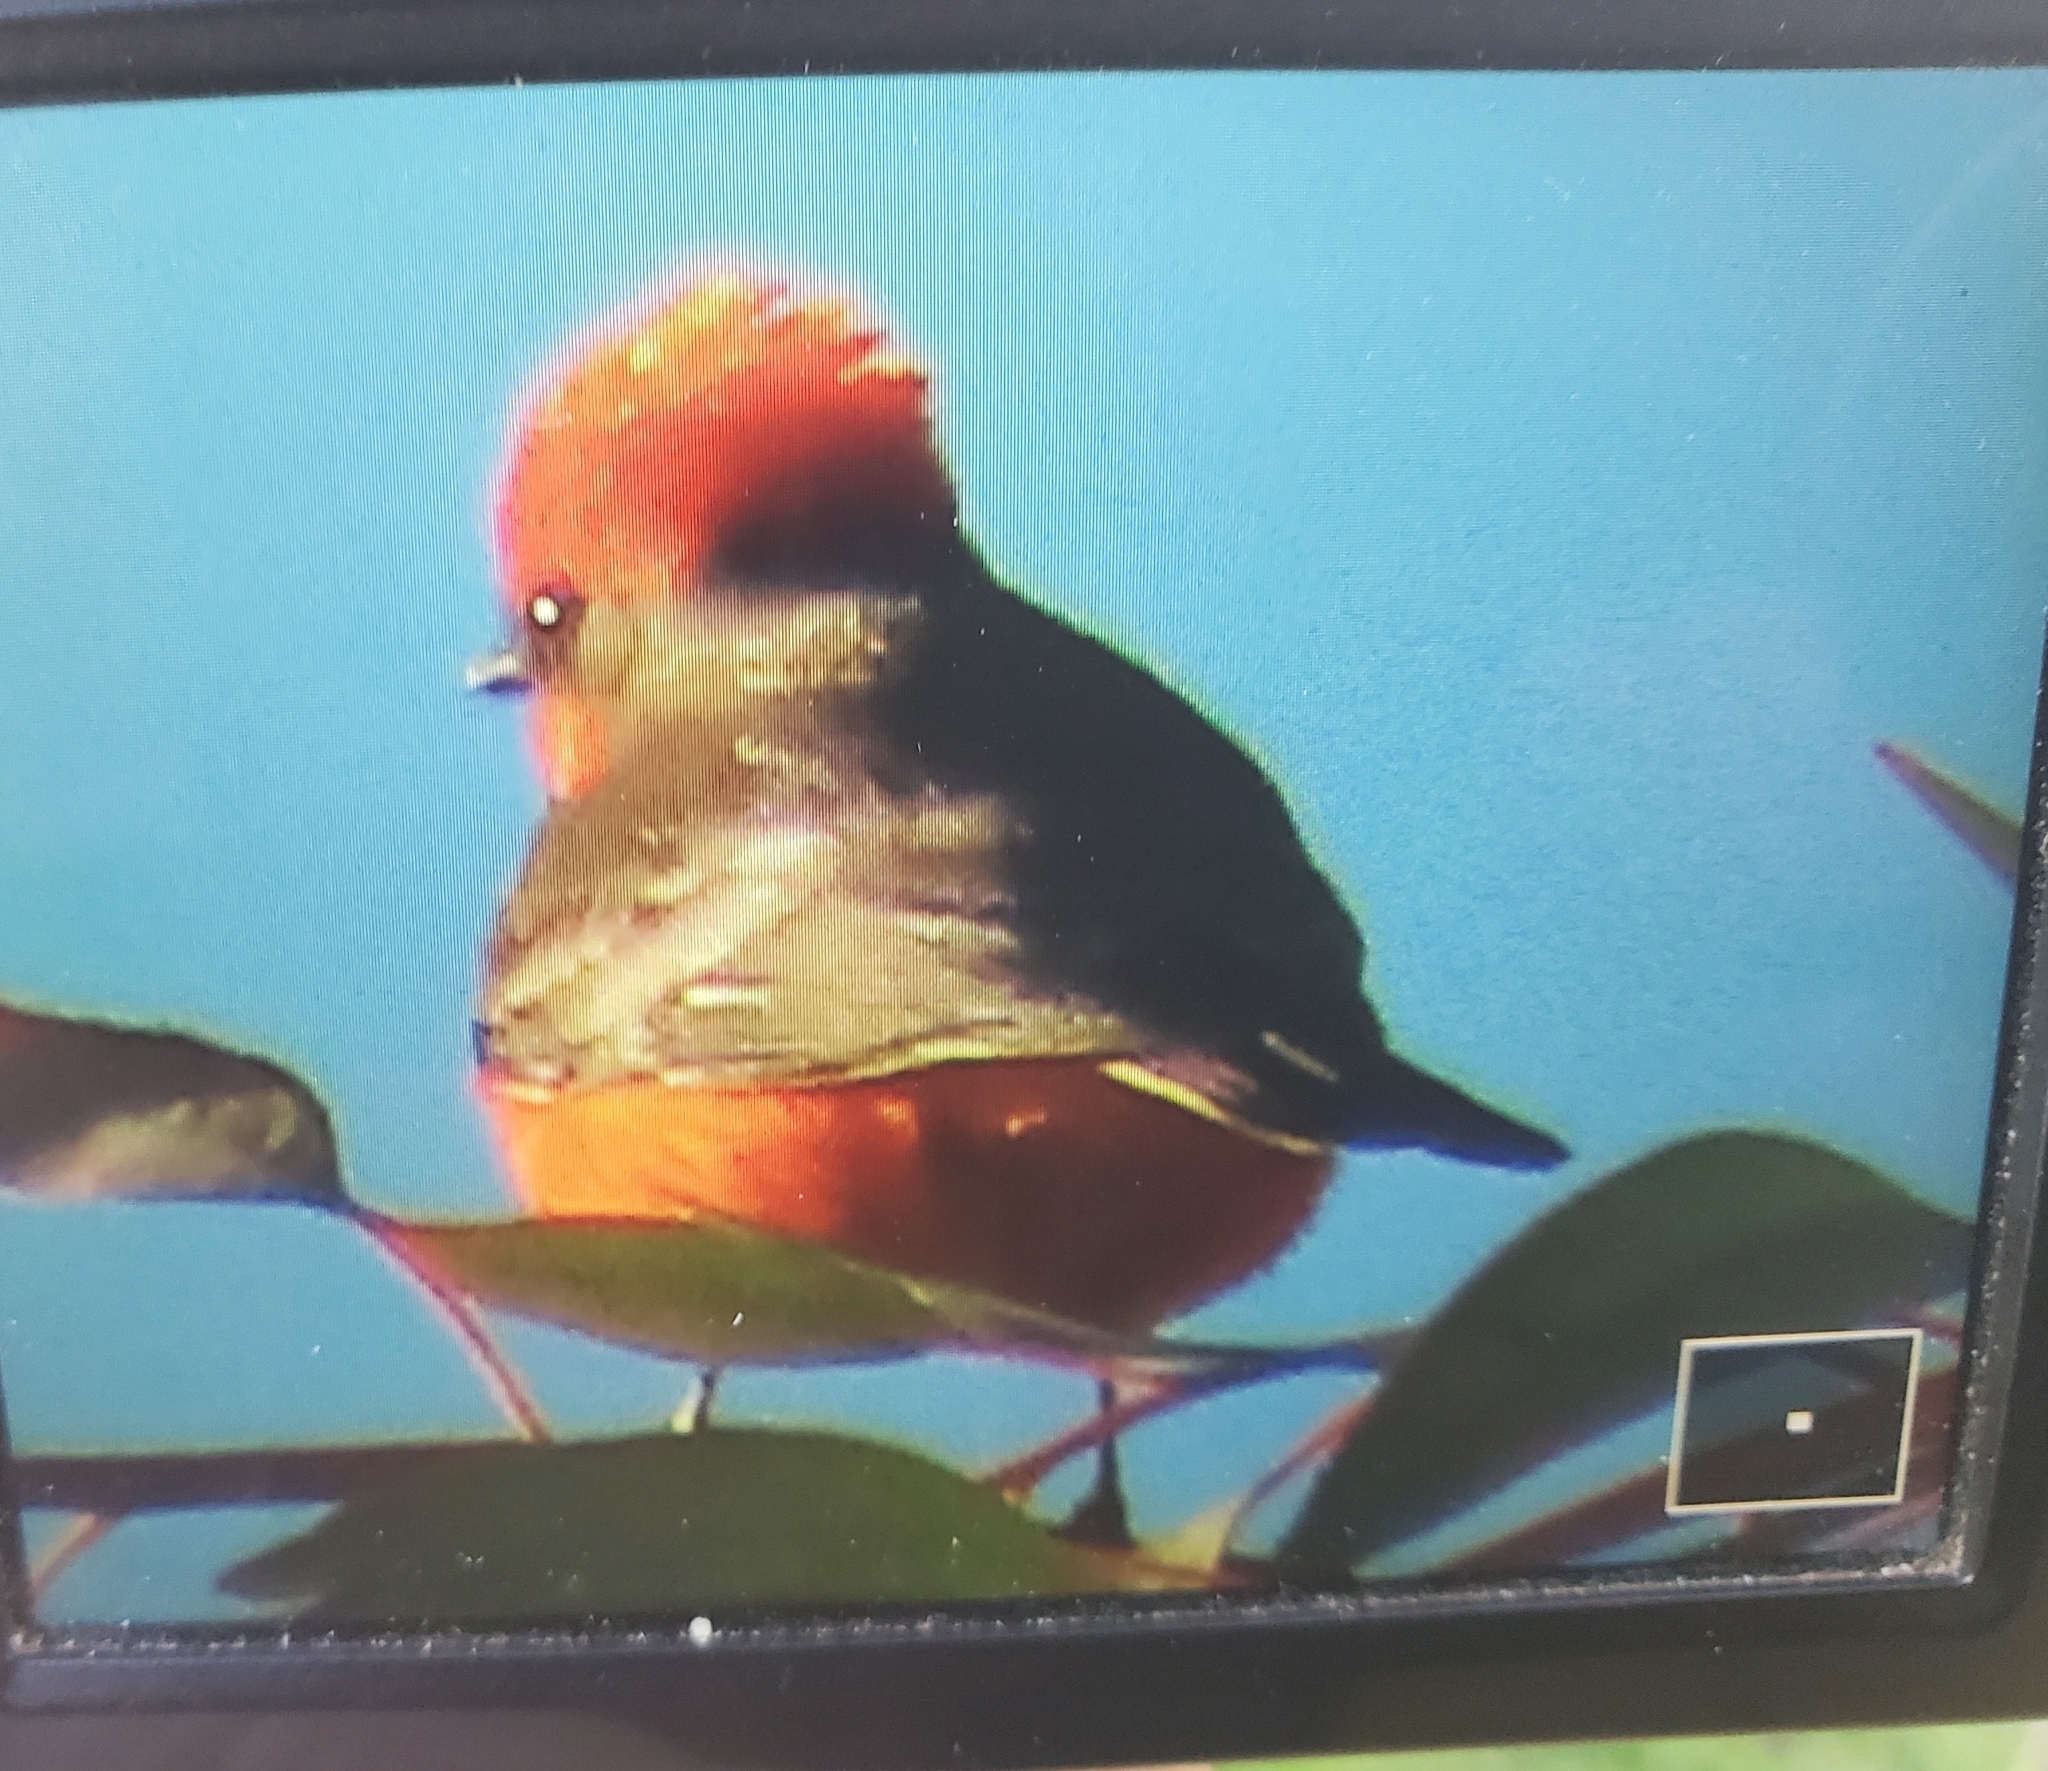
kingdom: Animalia
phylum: Chordata
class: Aves
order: Passeriformes
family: Tyrannidae
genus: Pyrocephalus
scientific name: Pyrocephalus rubinus
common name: Vermilion flycatcher
